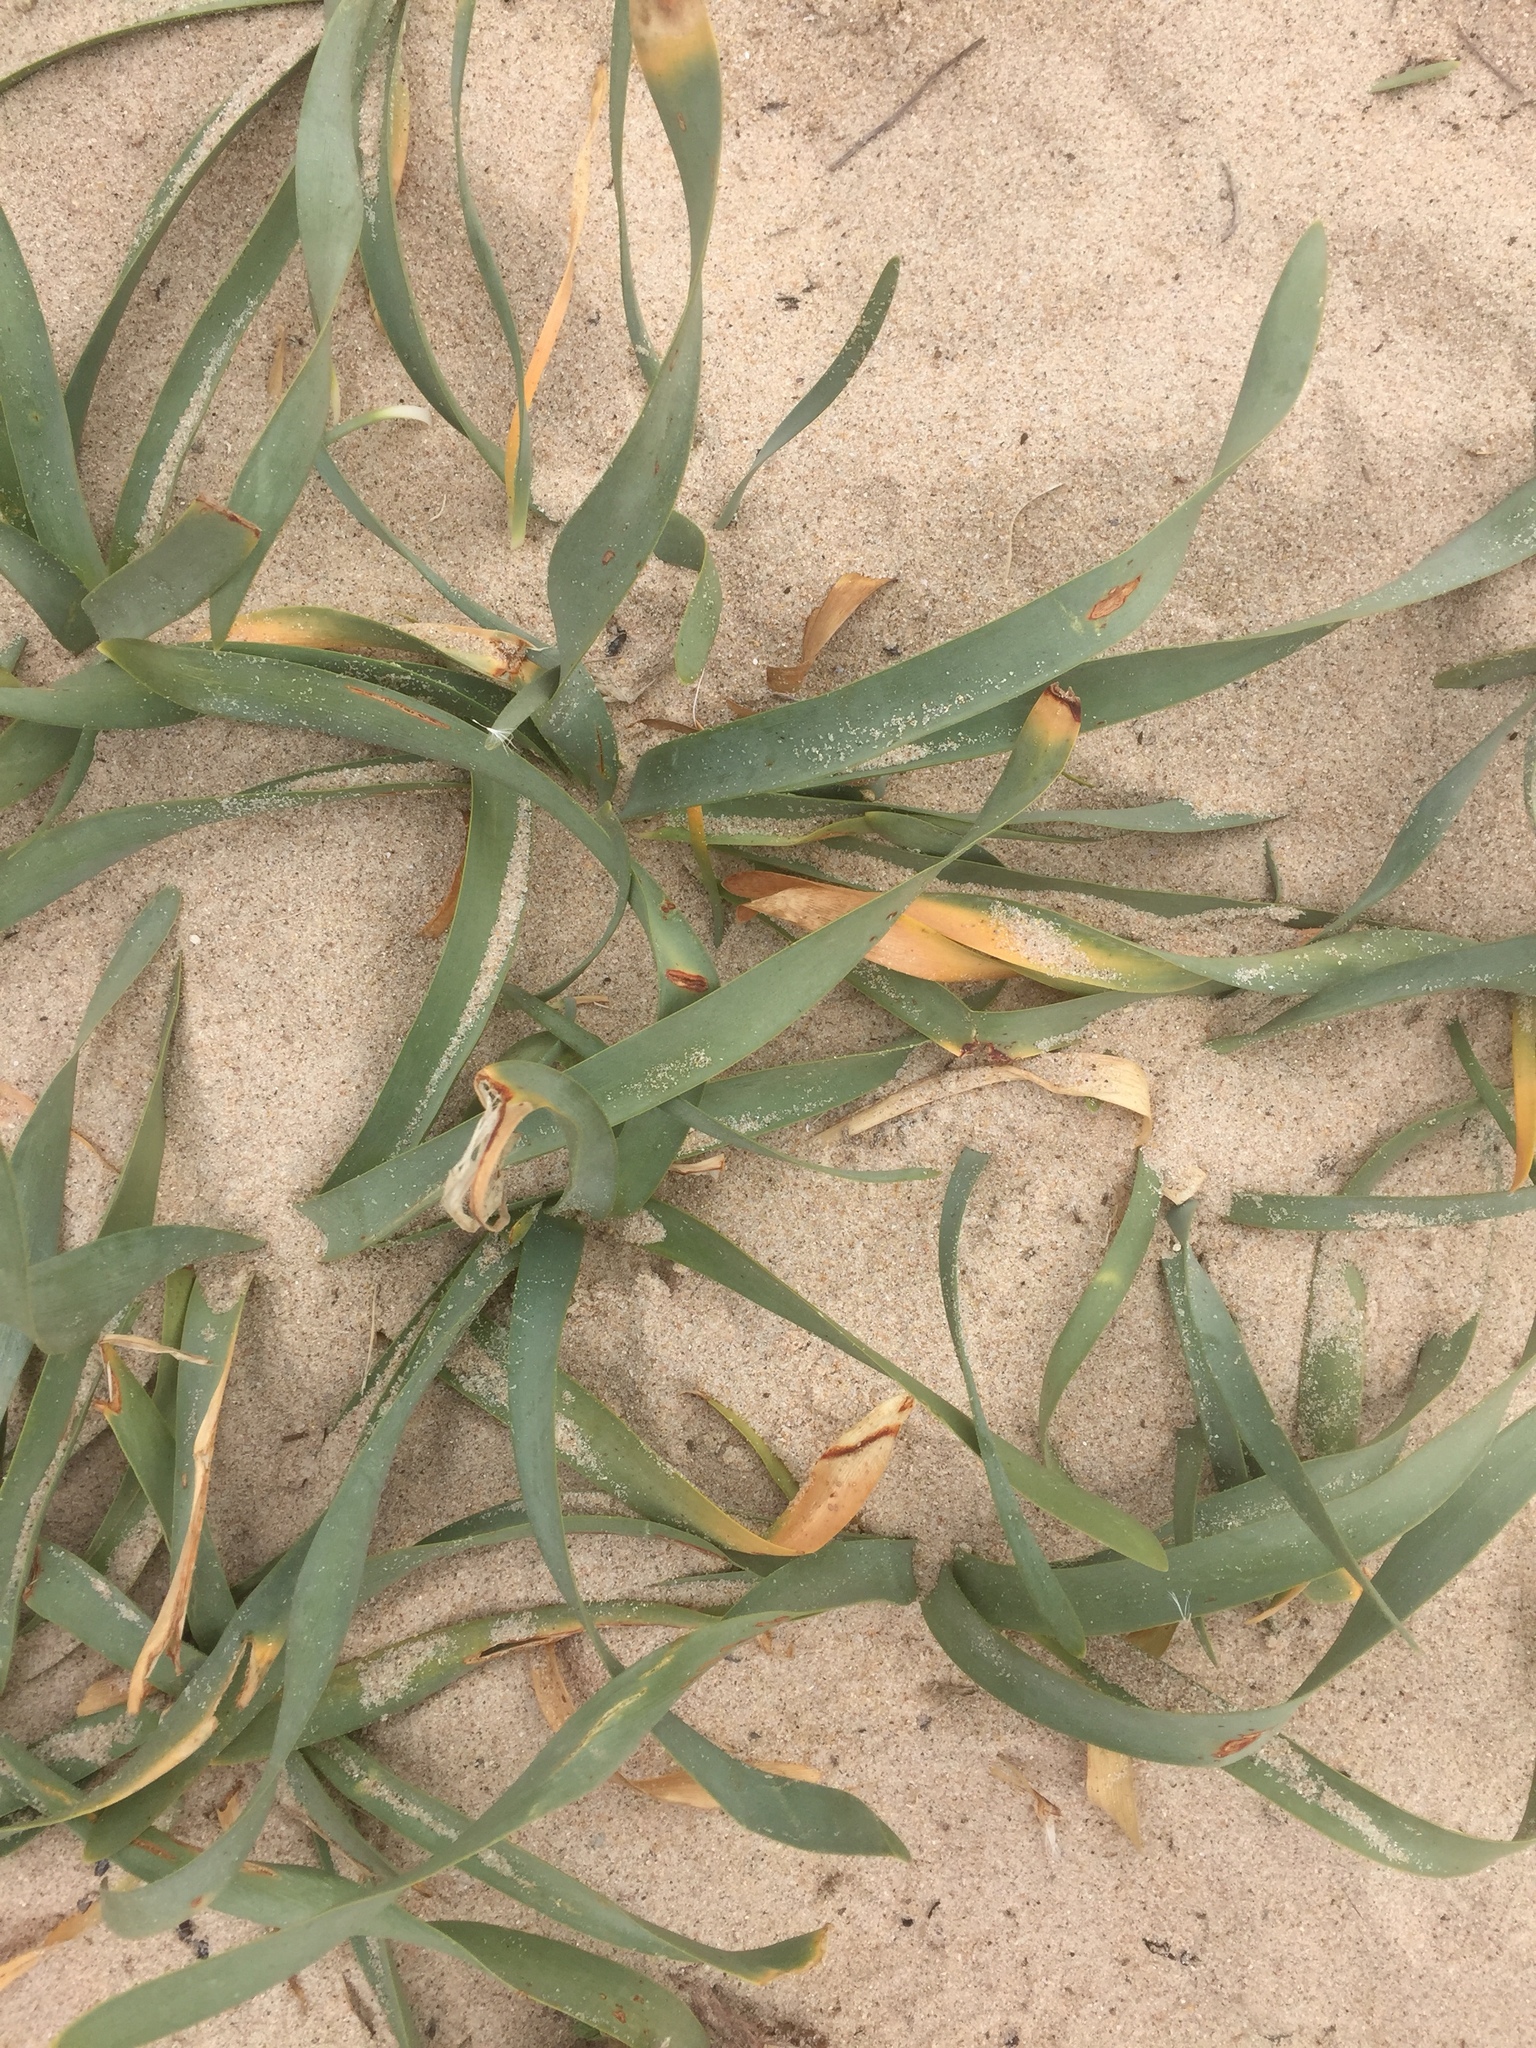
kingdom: Plantae
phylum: Tracheophyta
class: Liliopsida
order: Asparagales
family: Amaryllidaceae
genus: Pancratium
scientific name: Pancratium maritimum
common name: Sea-daffodil
